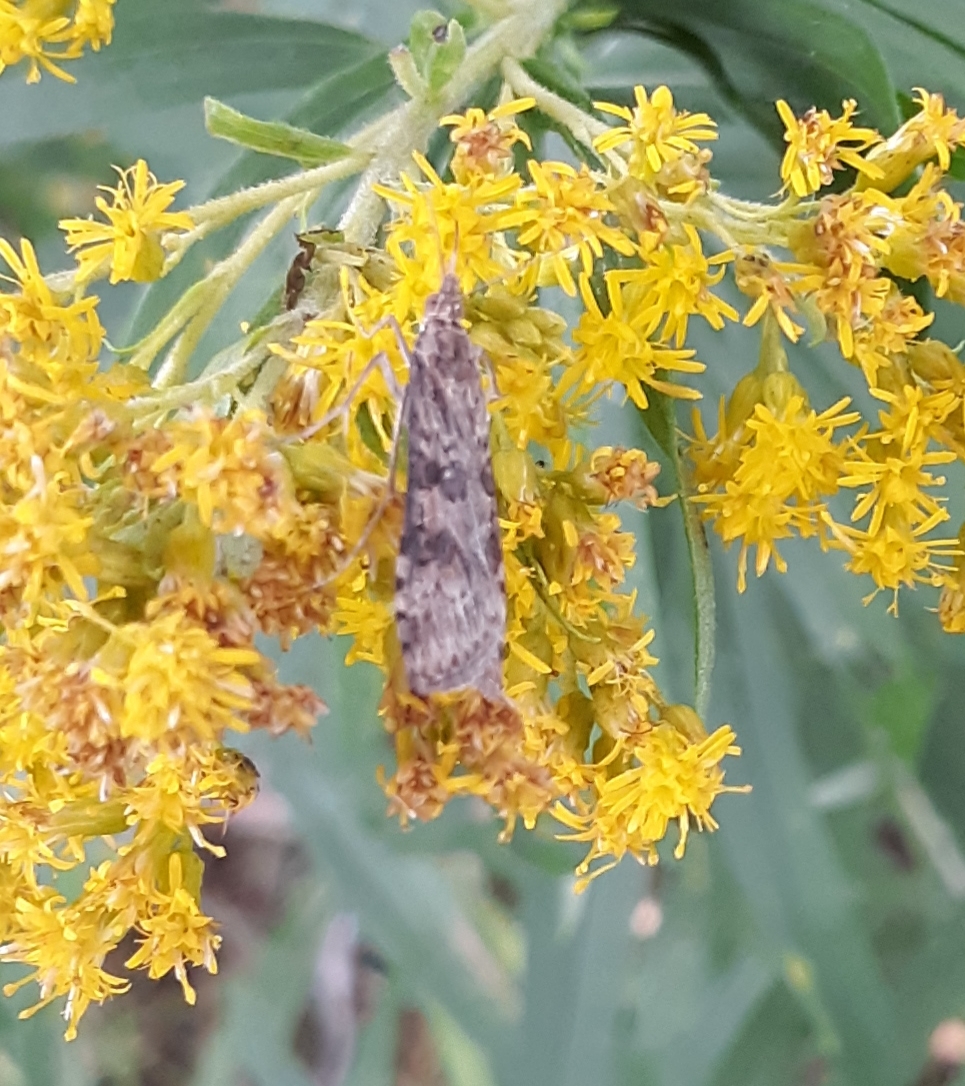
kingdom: Animalia
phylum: Arthropoda
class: Insecta
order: Lepidoptera
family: Crambidae
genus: Nomophila
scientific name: Nomophila nearctica
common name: American rush veneer
